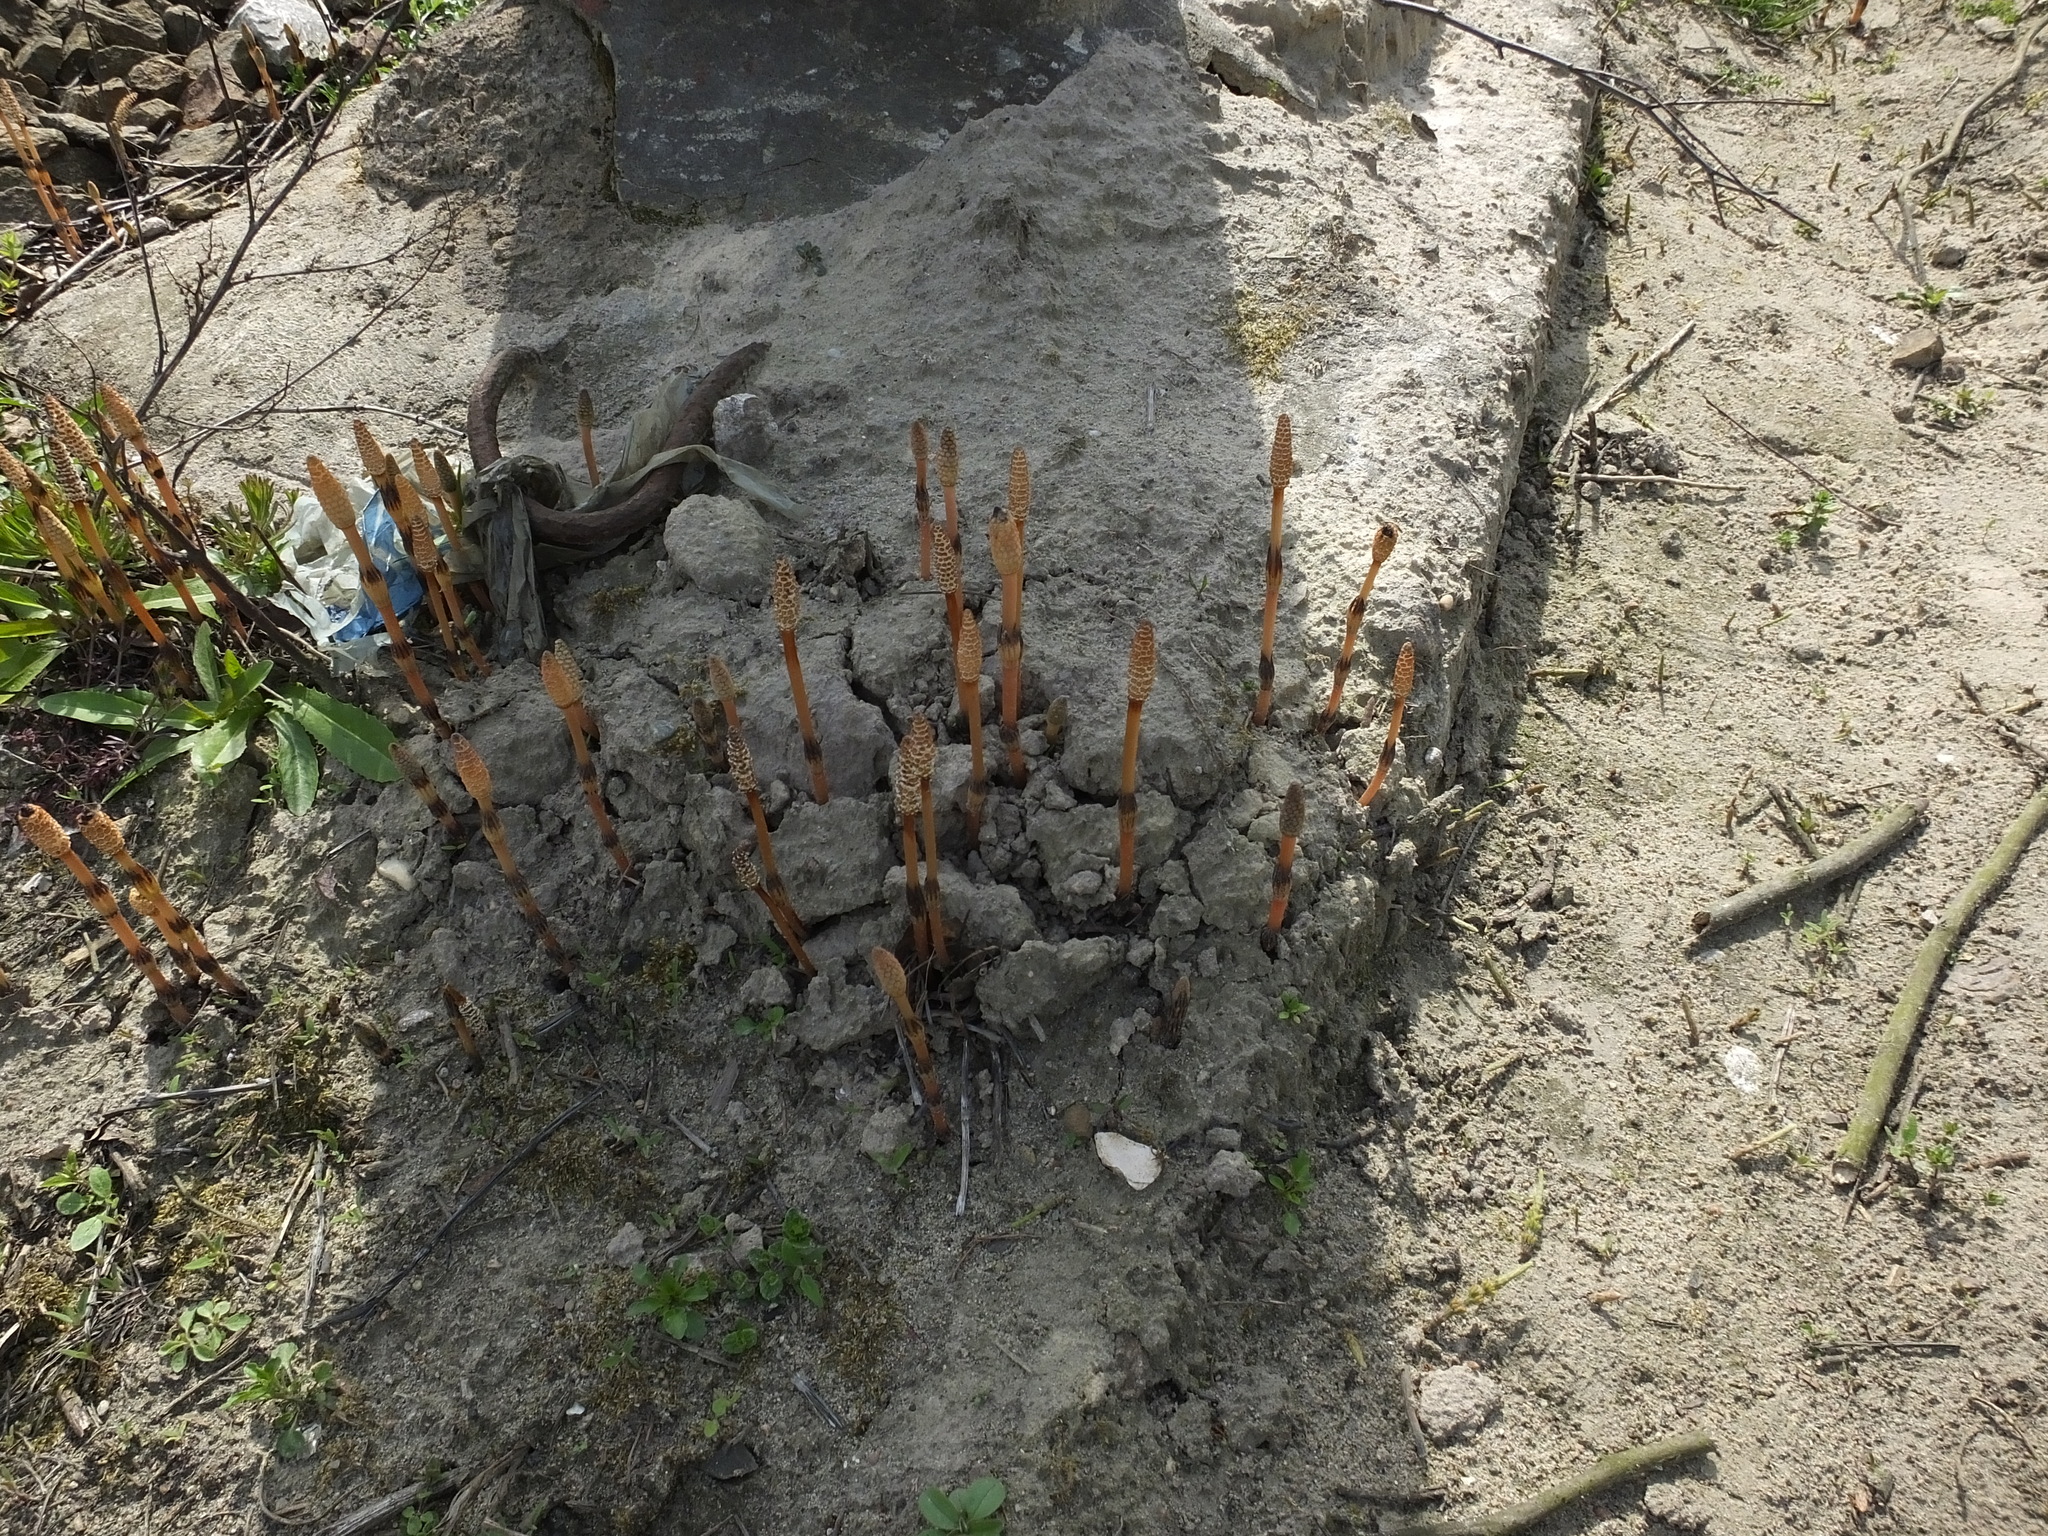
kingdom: Plantae
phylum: Tracheophyta
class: Polypodiopsida
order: Equisetales
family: Equisetaceae
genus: Equisetum
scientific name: Equisetum arvense
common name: Field horsetail
